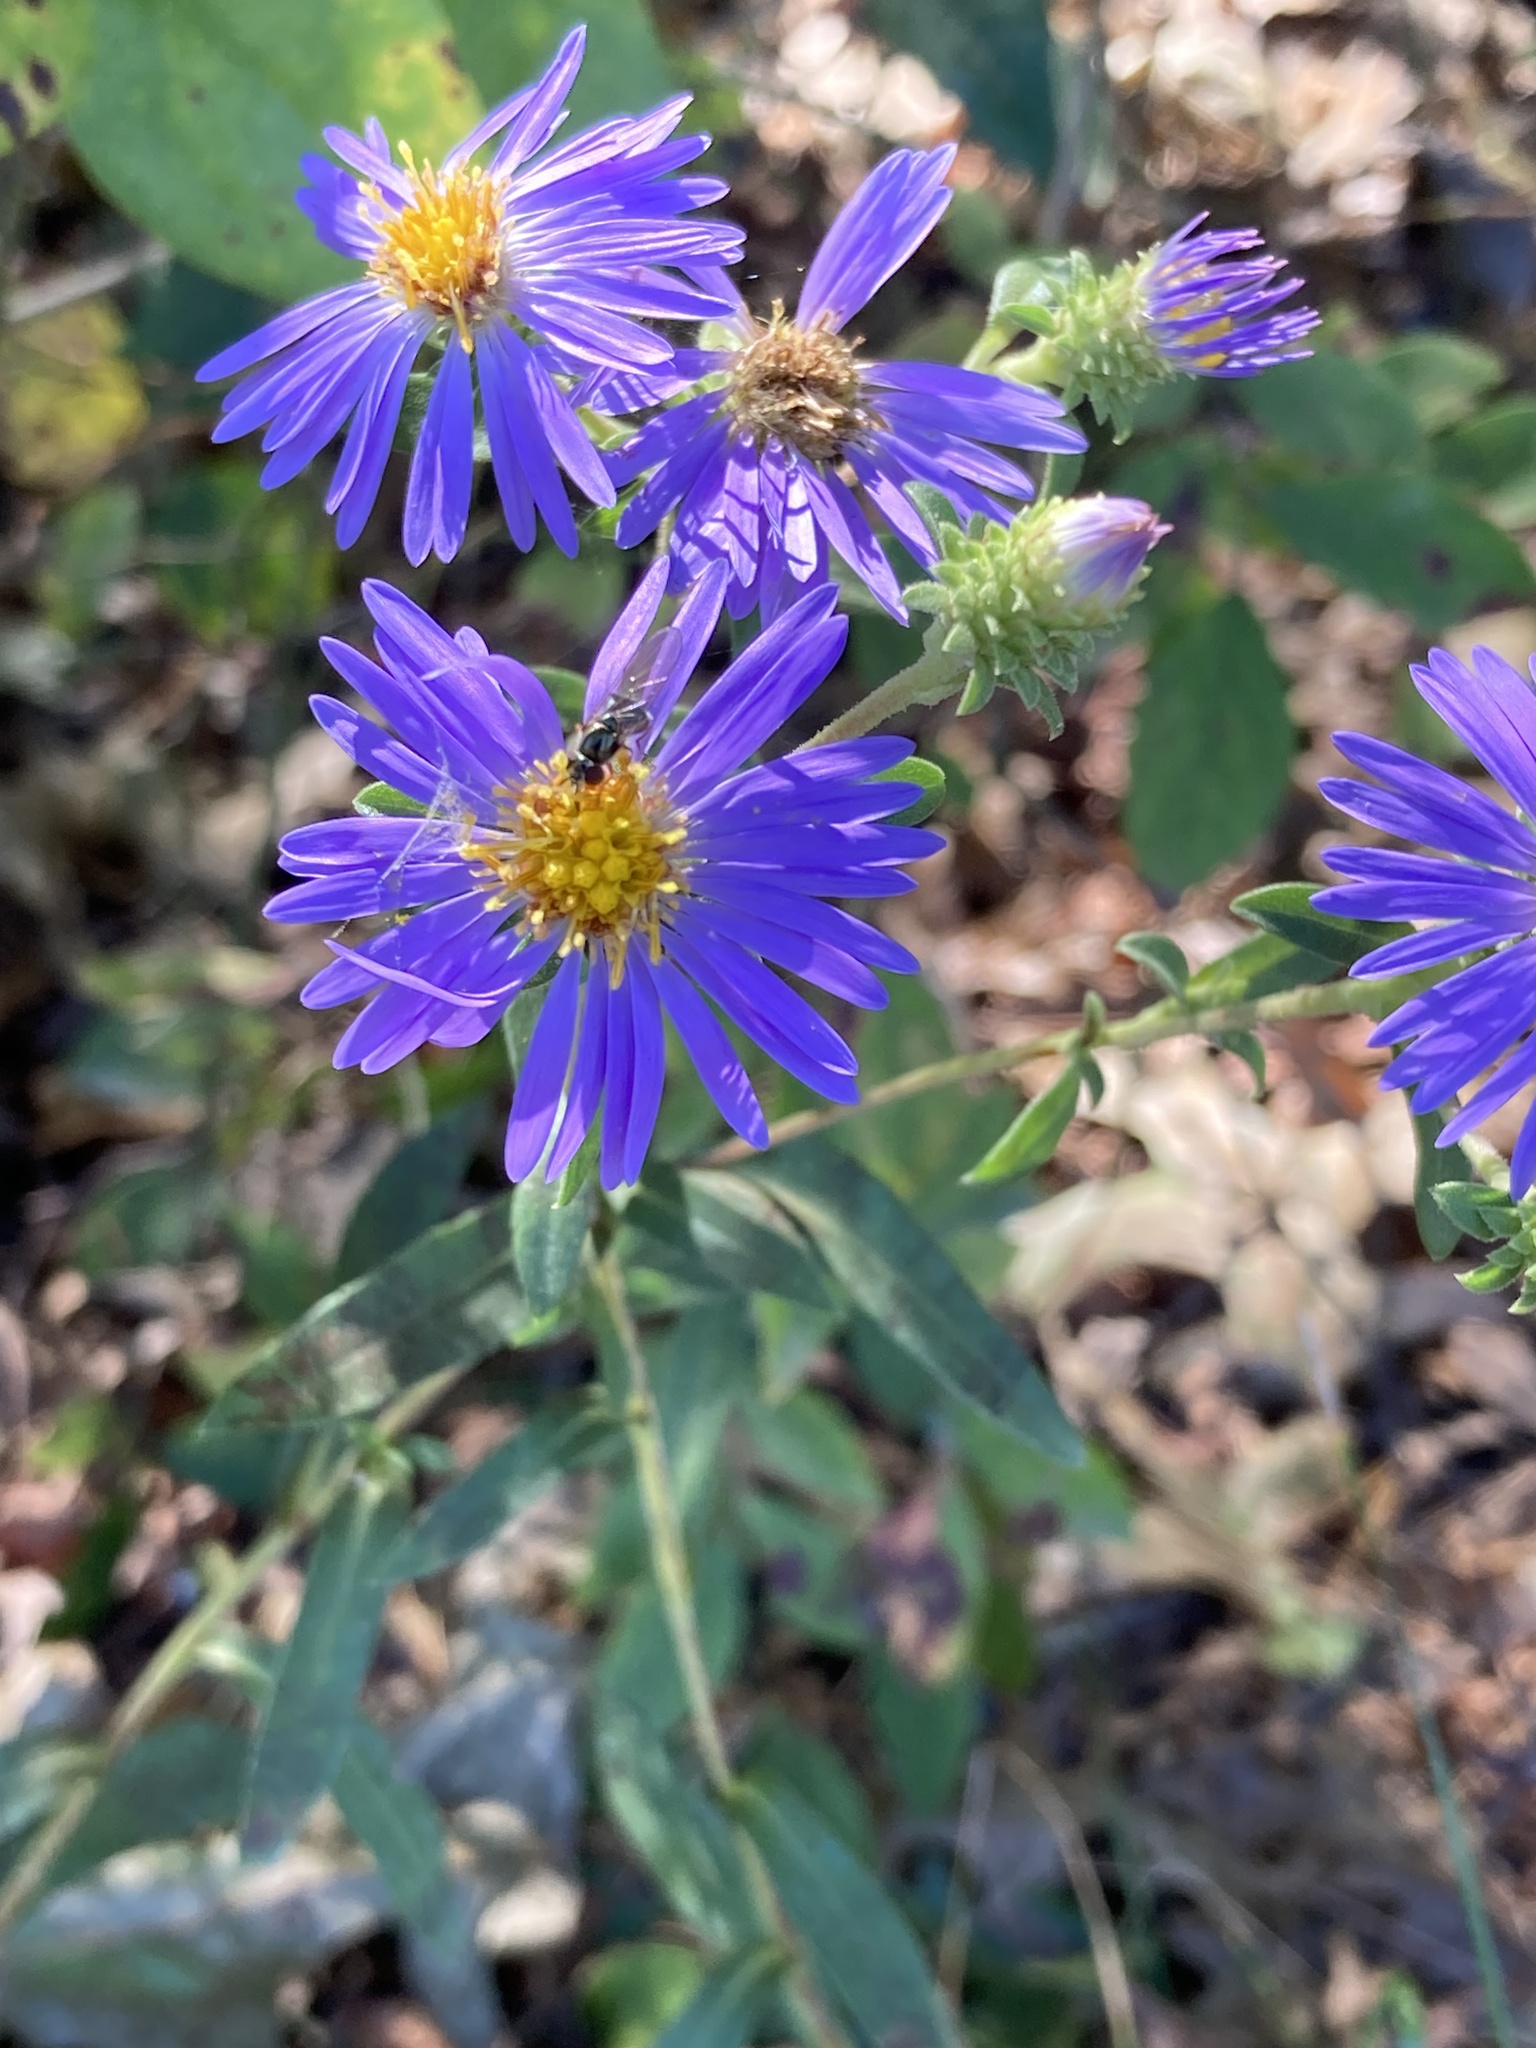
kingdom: Plantae
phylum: Tracheophyta
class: Magnoliopsida
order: Asterales
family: Asteraceae
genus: Eurybia
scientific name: Eurybia spectabilis
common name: Low showy aster
